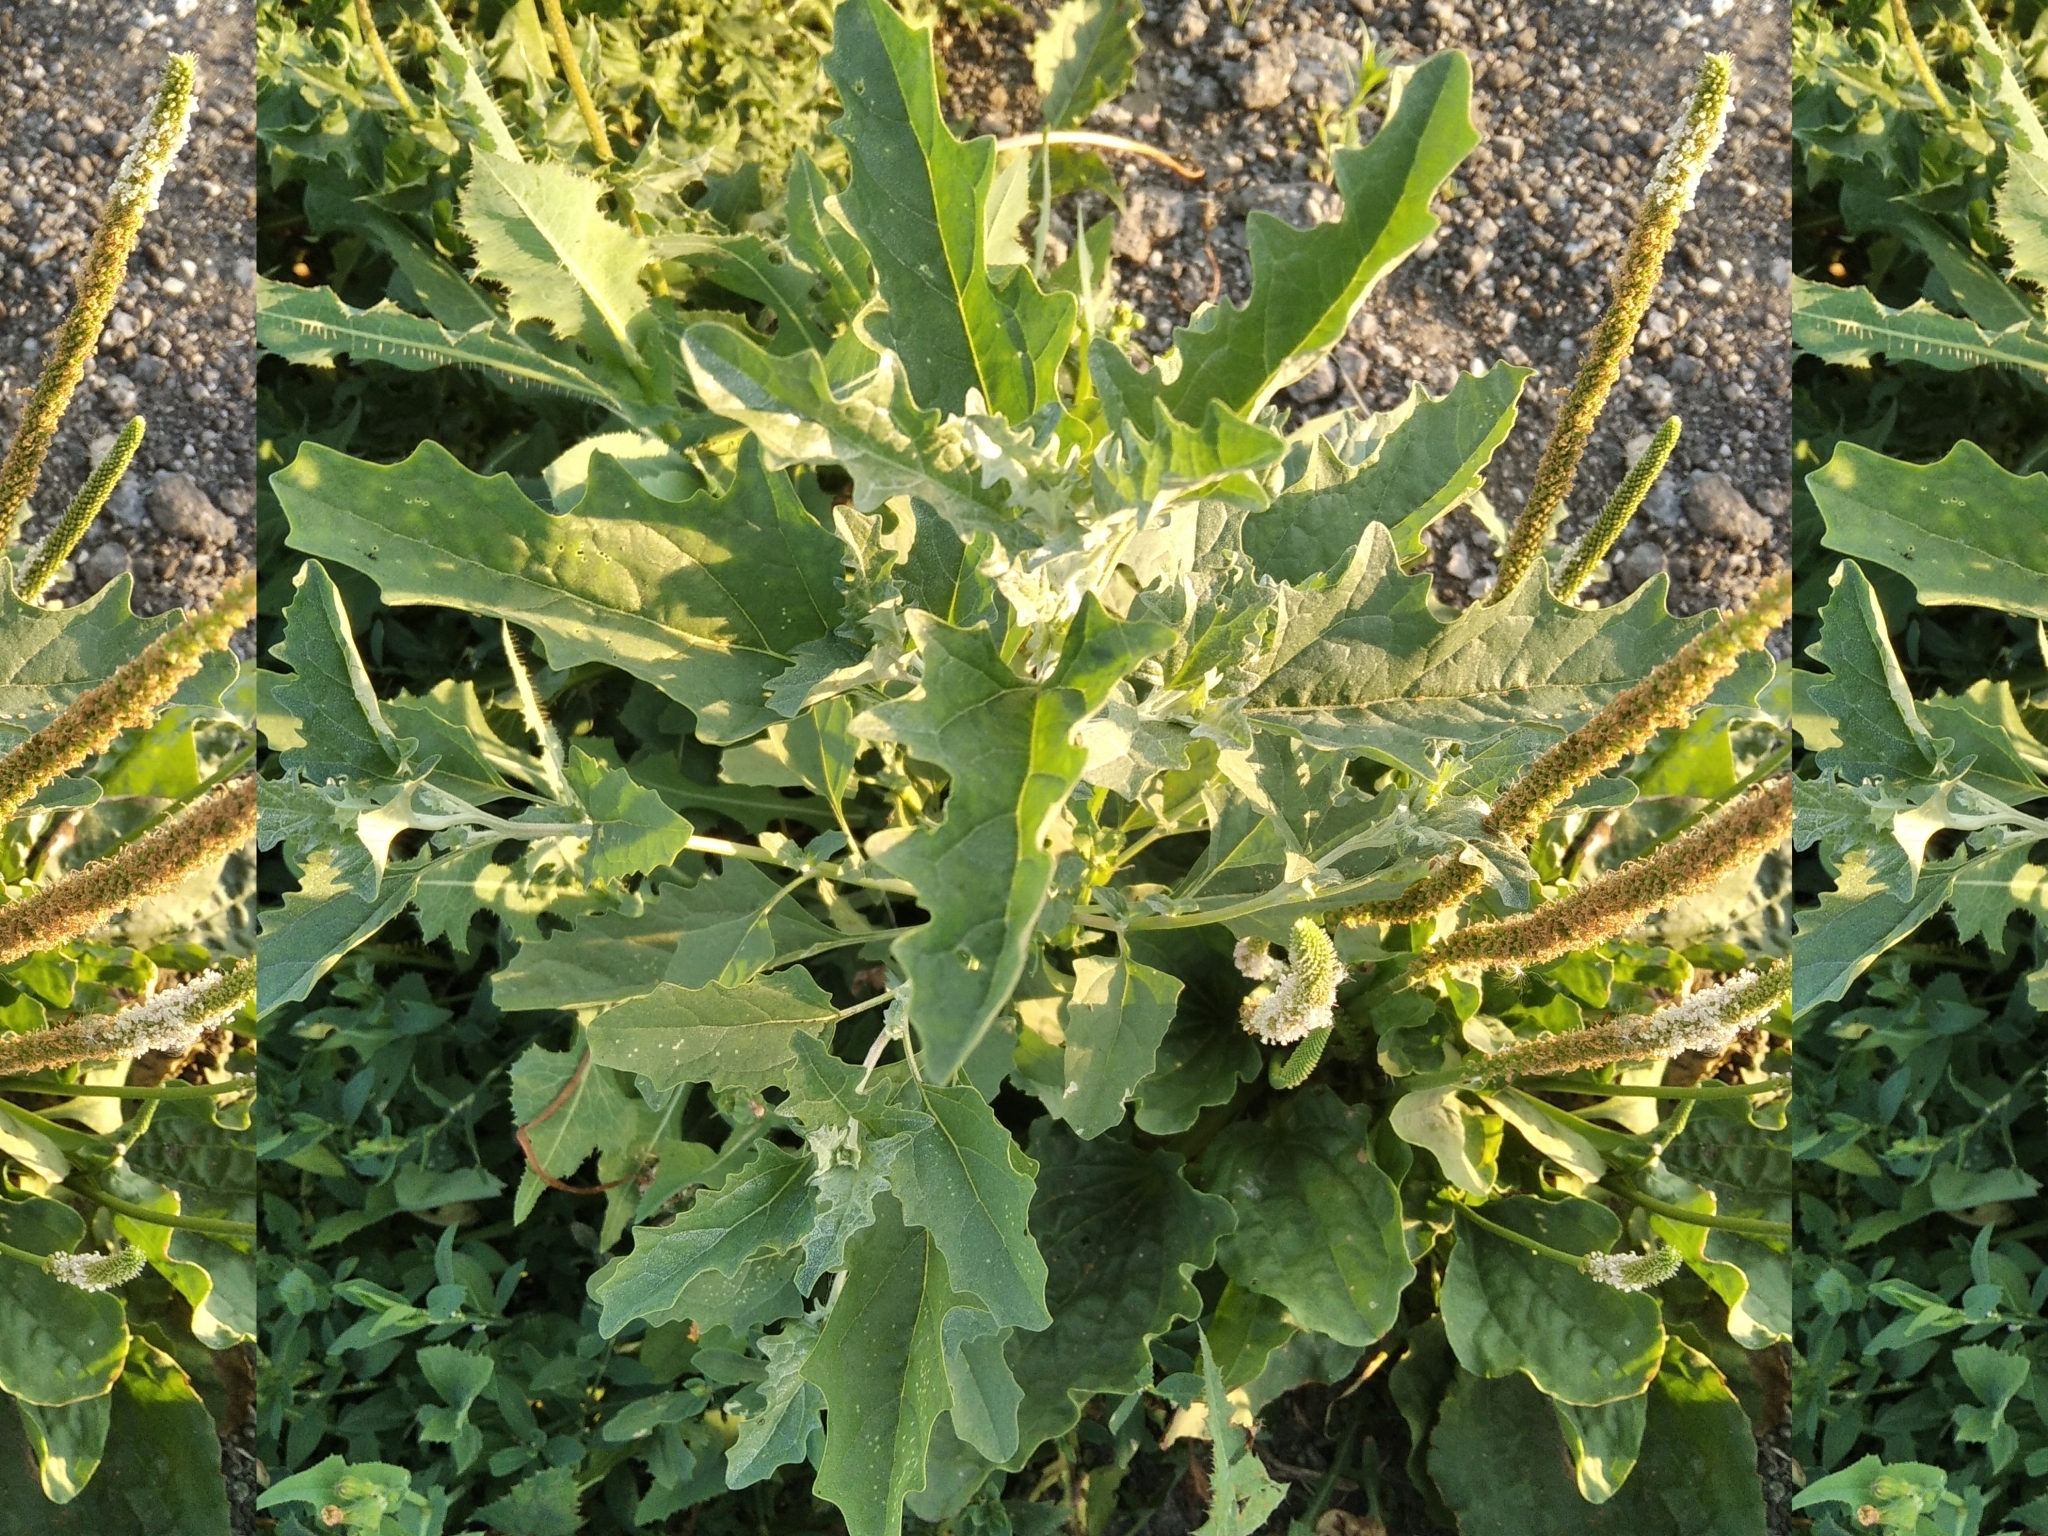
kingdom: Plantae
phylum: Tracheophyta
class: Magnoliopsida
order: Caryophyllales
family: Amaranthaceae
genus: Atriplex
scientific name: Atriplex tatarica
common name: Tatarian orache
